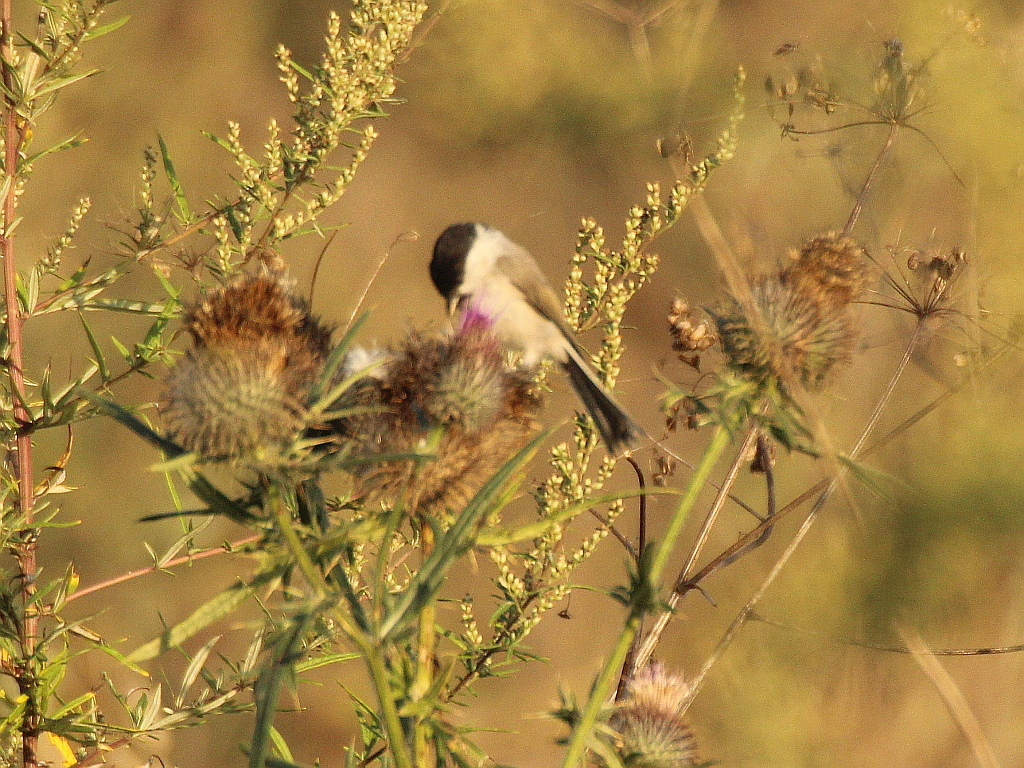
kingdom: Animalia
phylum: Chordata
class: Aves
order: Passeriformes
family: Paridae
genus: Poecile
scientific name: Poecile palustris
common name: Marsh tit
